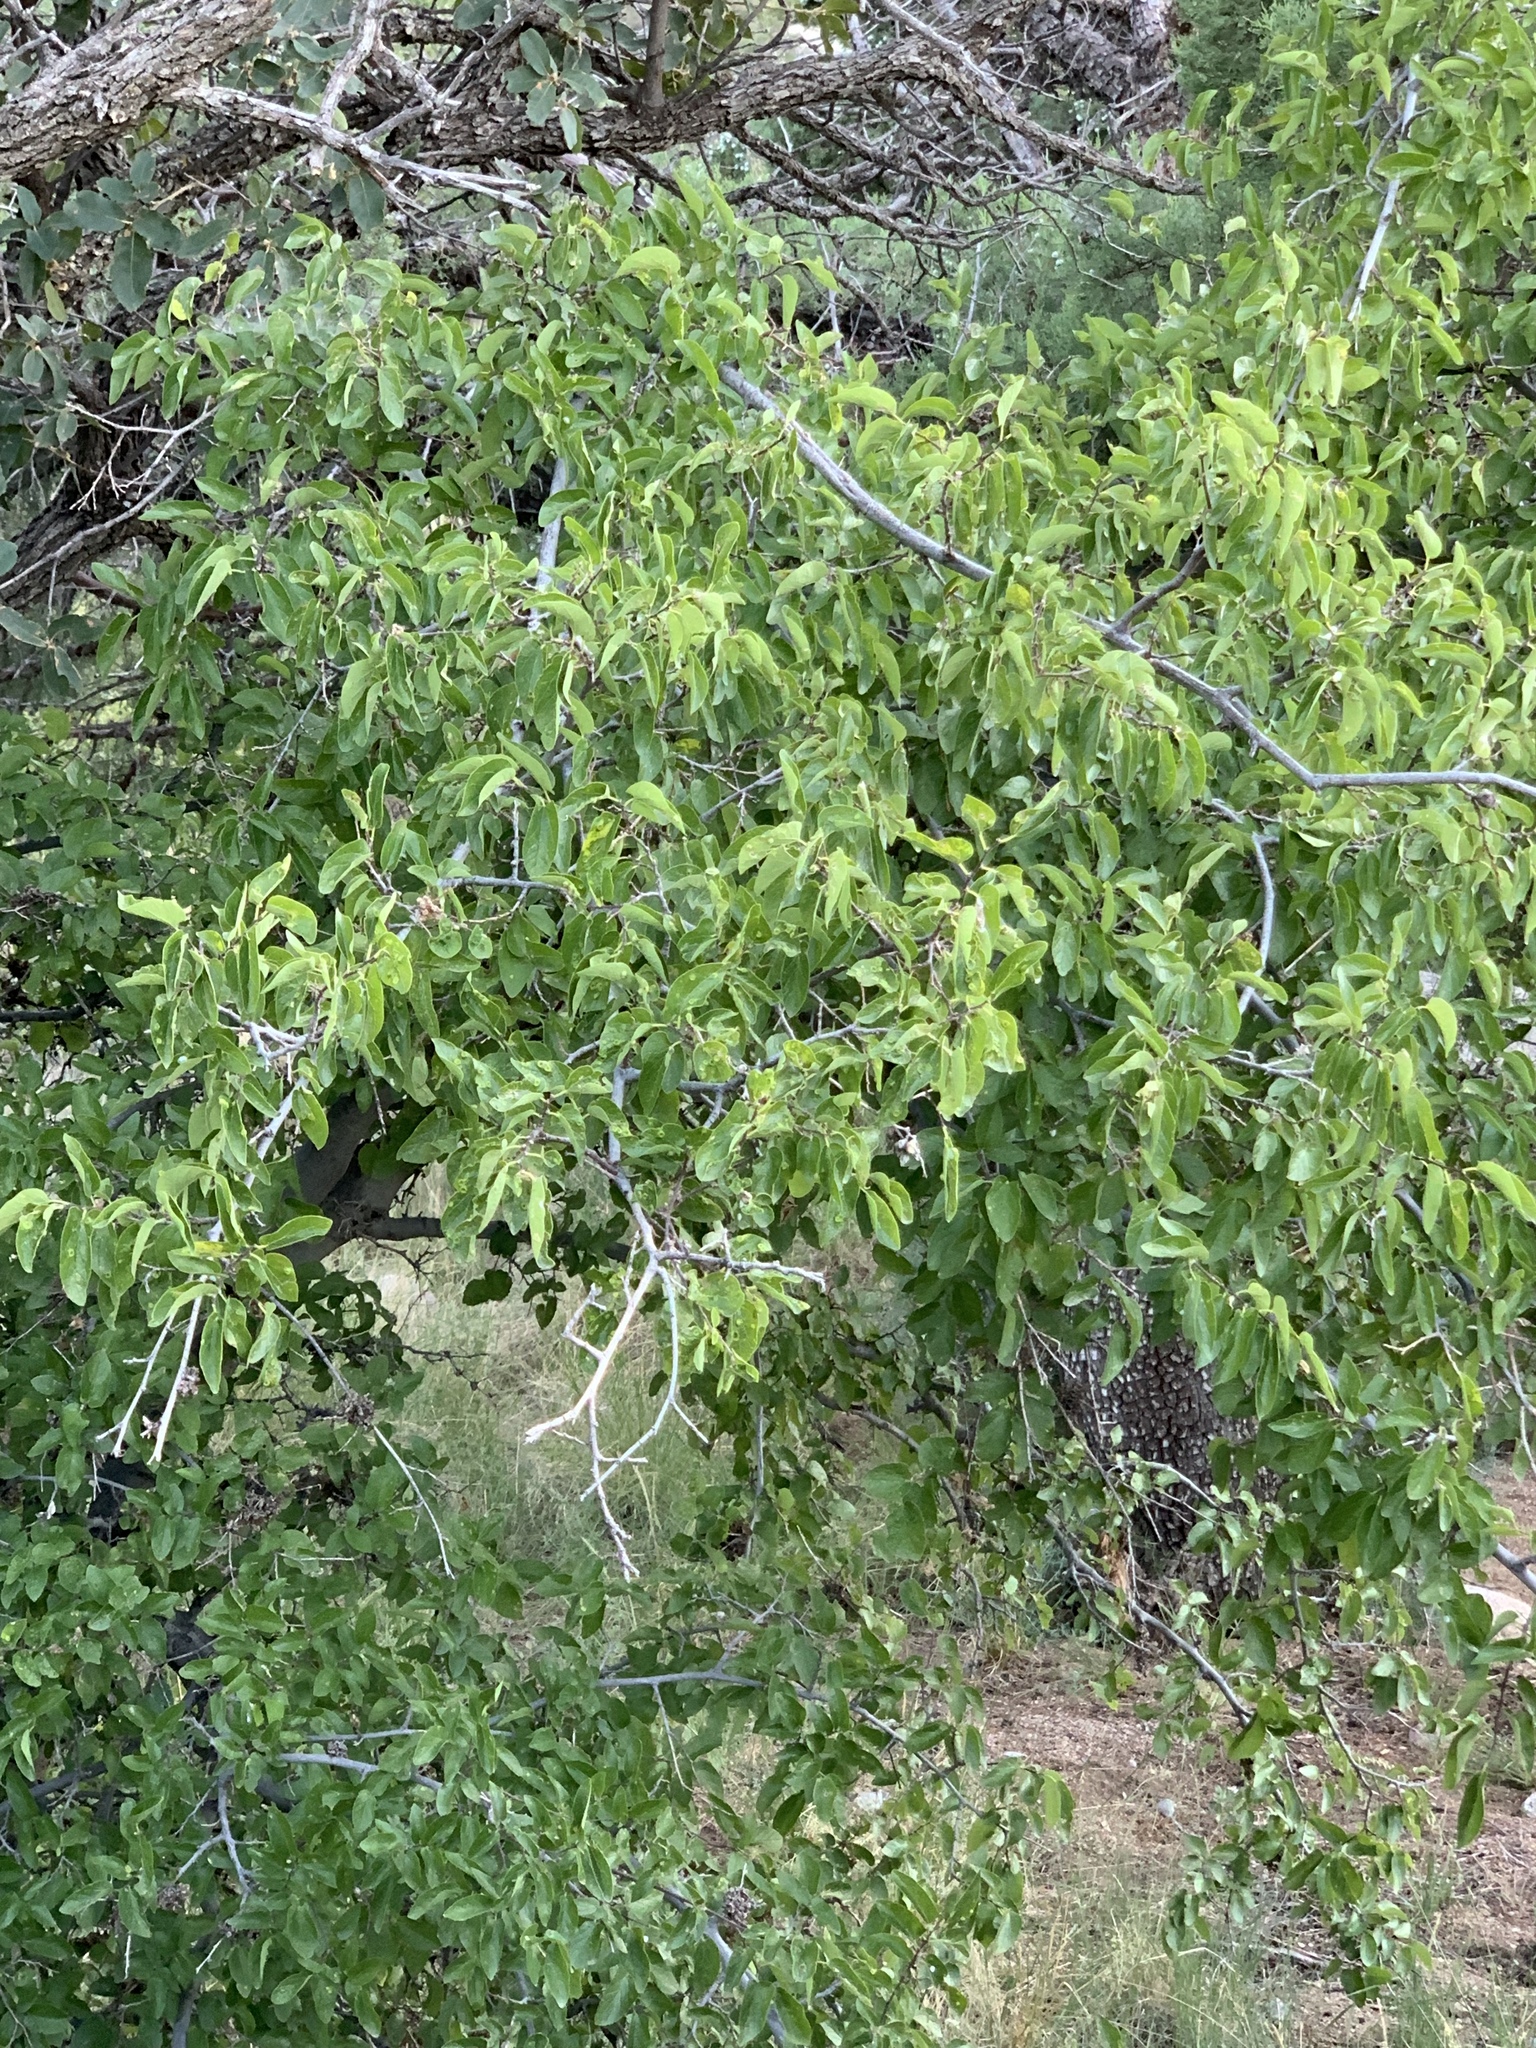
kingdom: Plantae
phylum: Tracheophyta
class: Magnoliopsida
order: Rosales
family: Cannabaceae
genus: Celtis
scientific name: Celtis reticulata
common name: Netleaf hackberry
